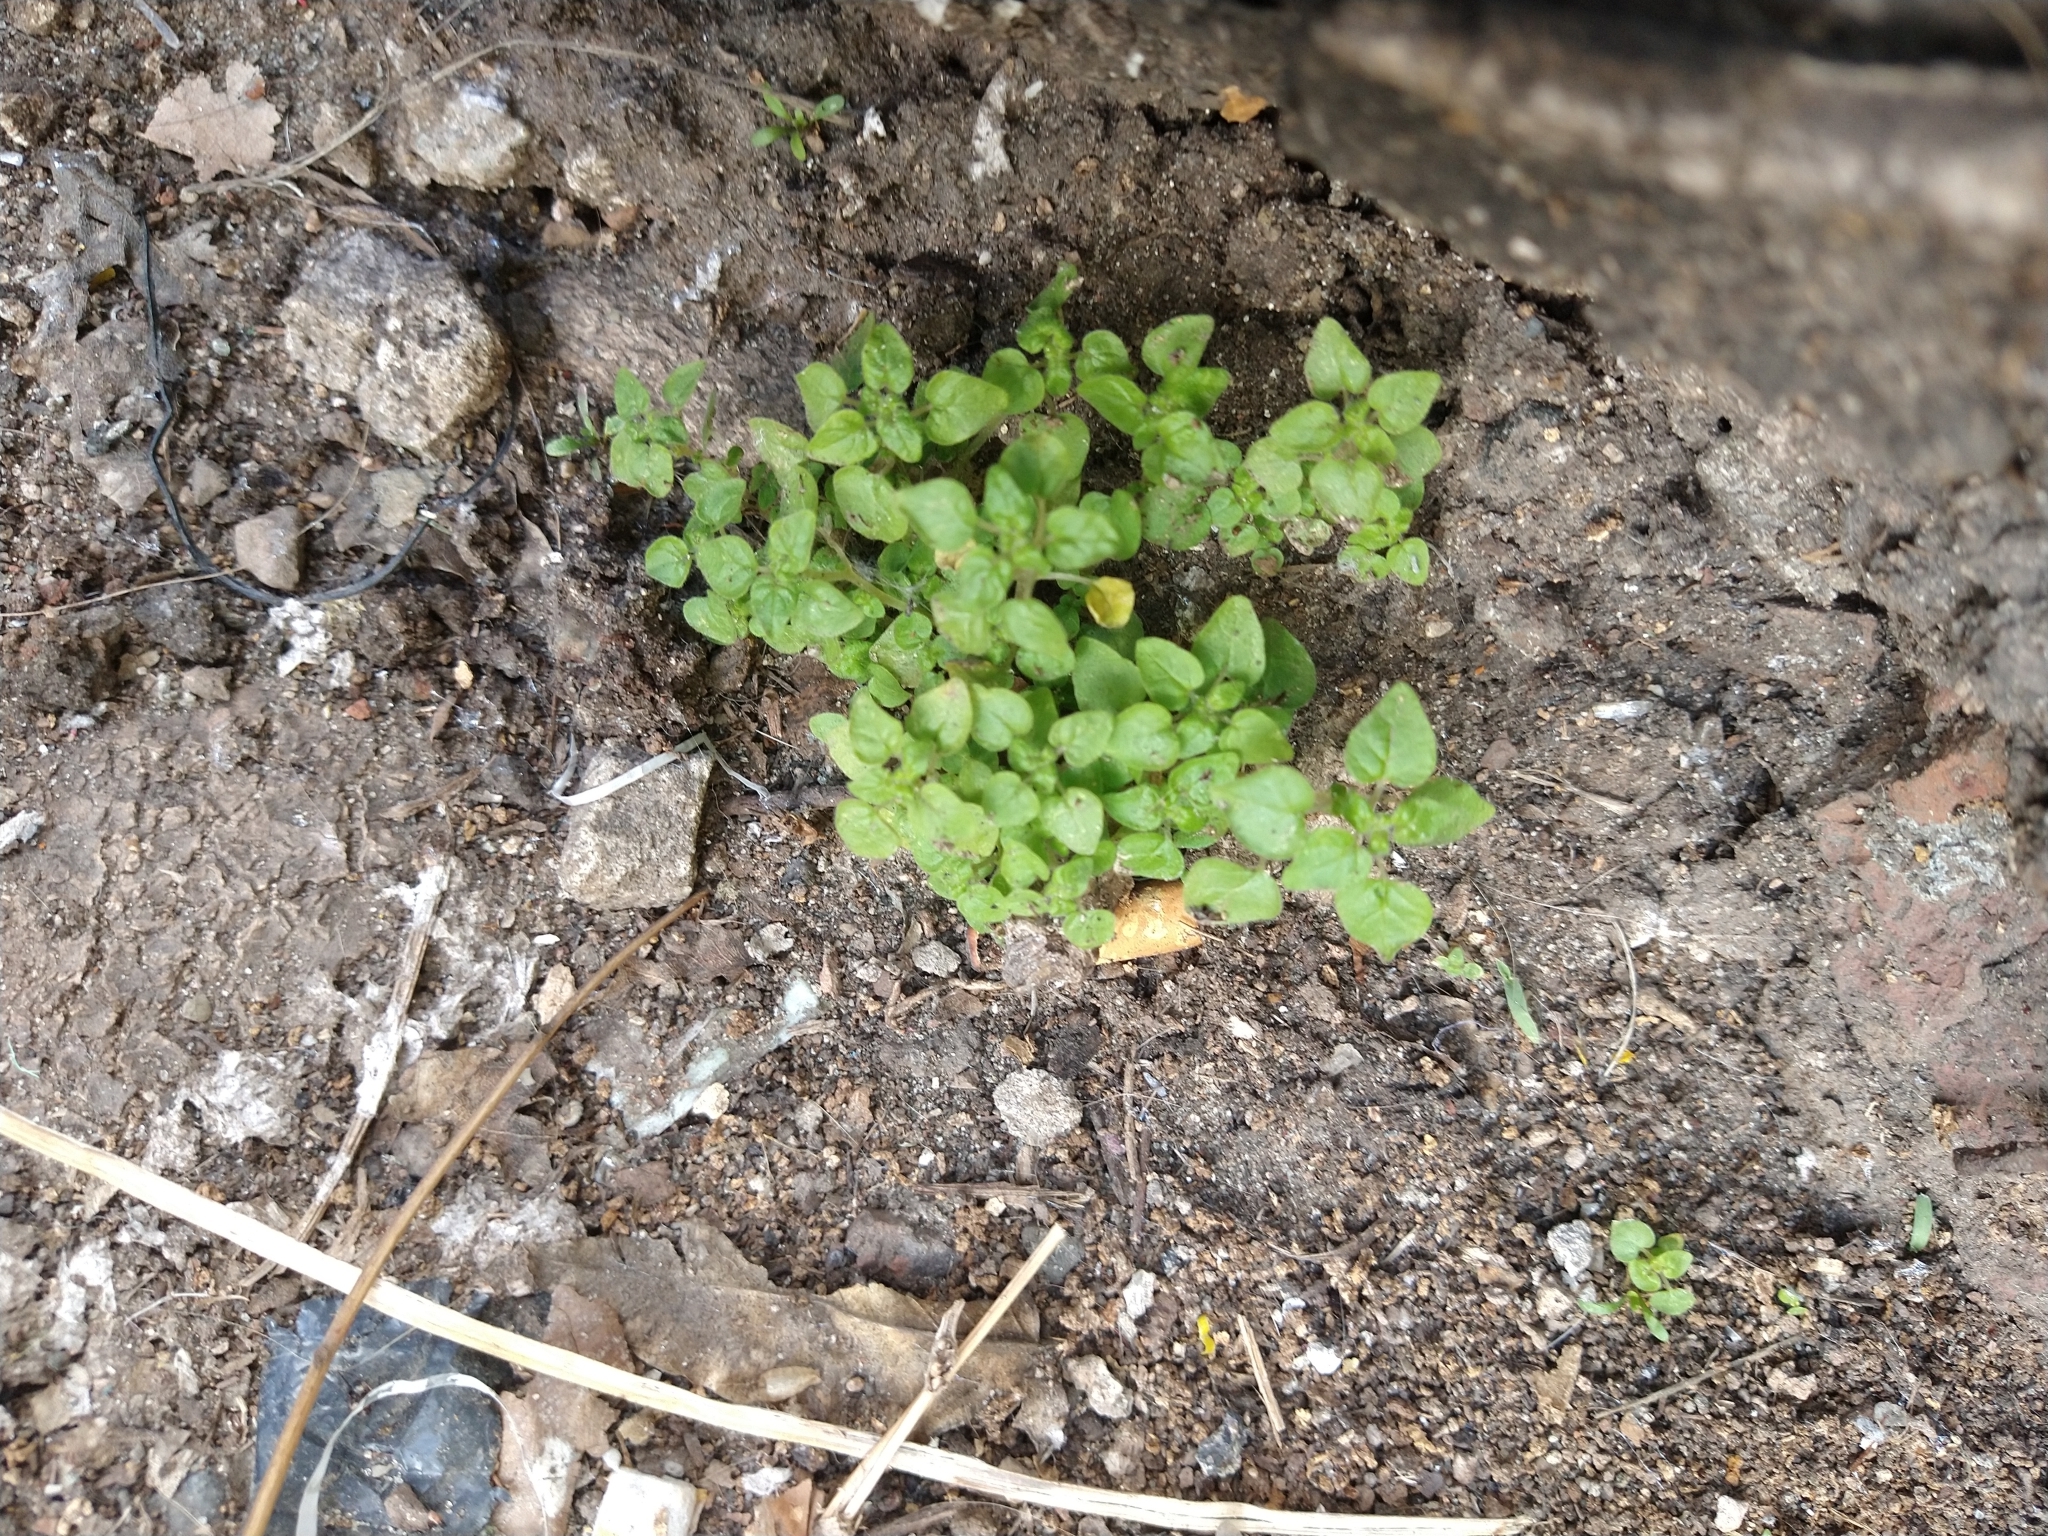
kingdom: Plantae
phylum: Tracheophyta
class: Magnoliopsida
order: Caryophyllales
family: Caryophyllaceae
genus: Stellaria
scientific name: Stellaria media
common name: Common chickweed
